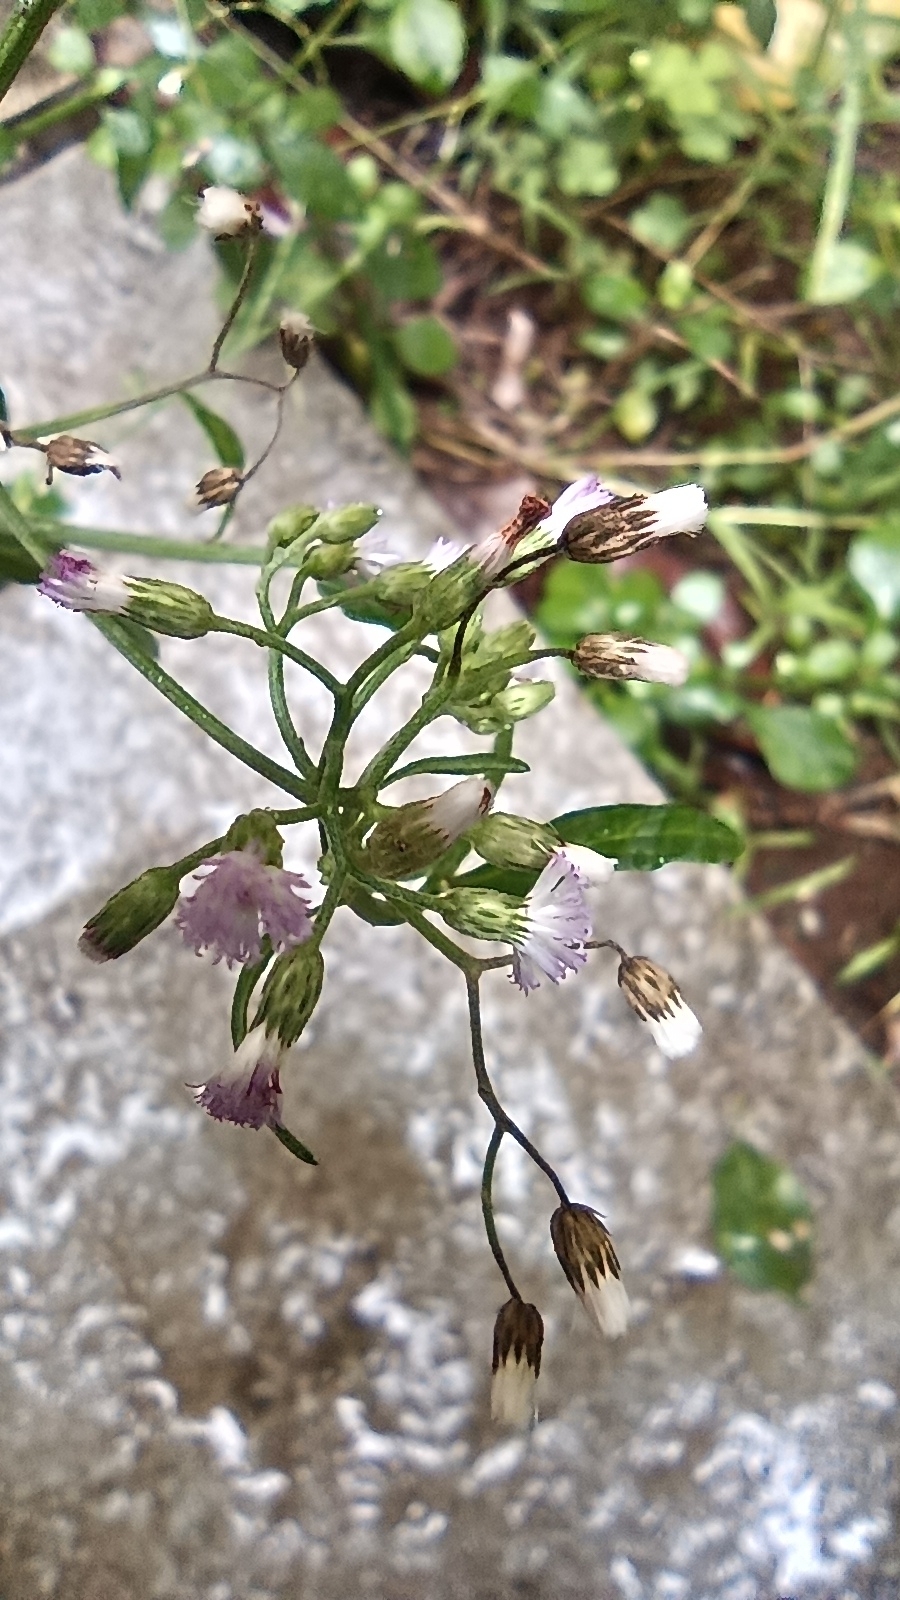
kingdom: Plantae
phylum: Tracheophyta
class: Magnoliopsida
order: Asterales
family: Asteraceae
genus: Cyanthillium
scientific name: Cyanthillium cinereum
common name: Little ironweed
